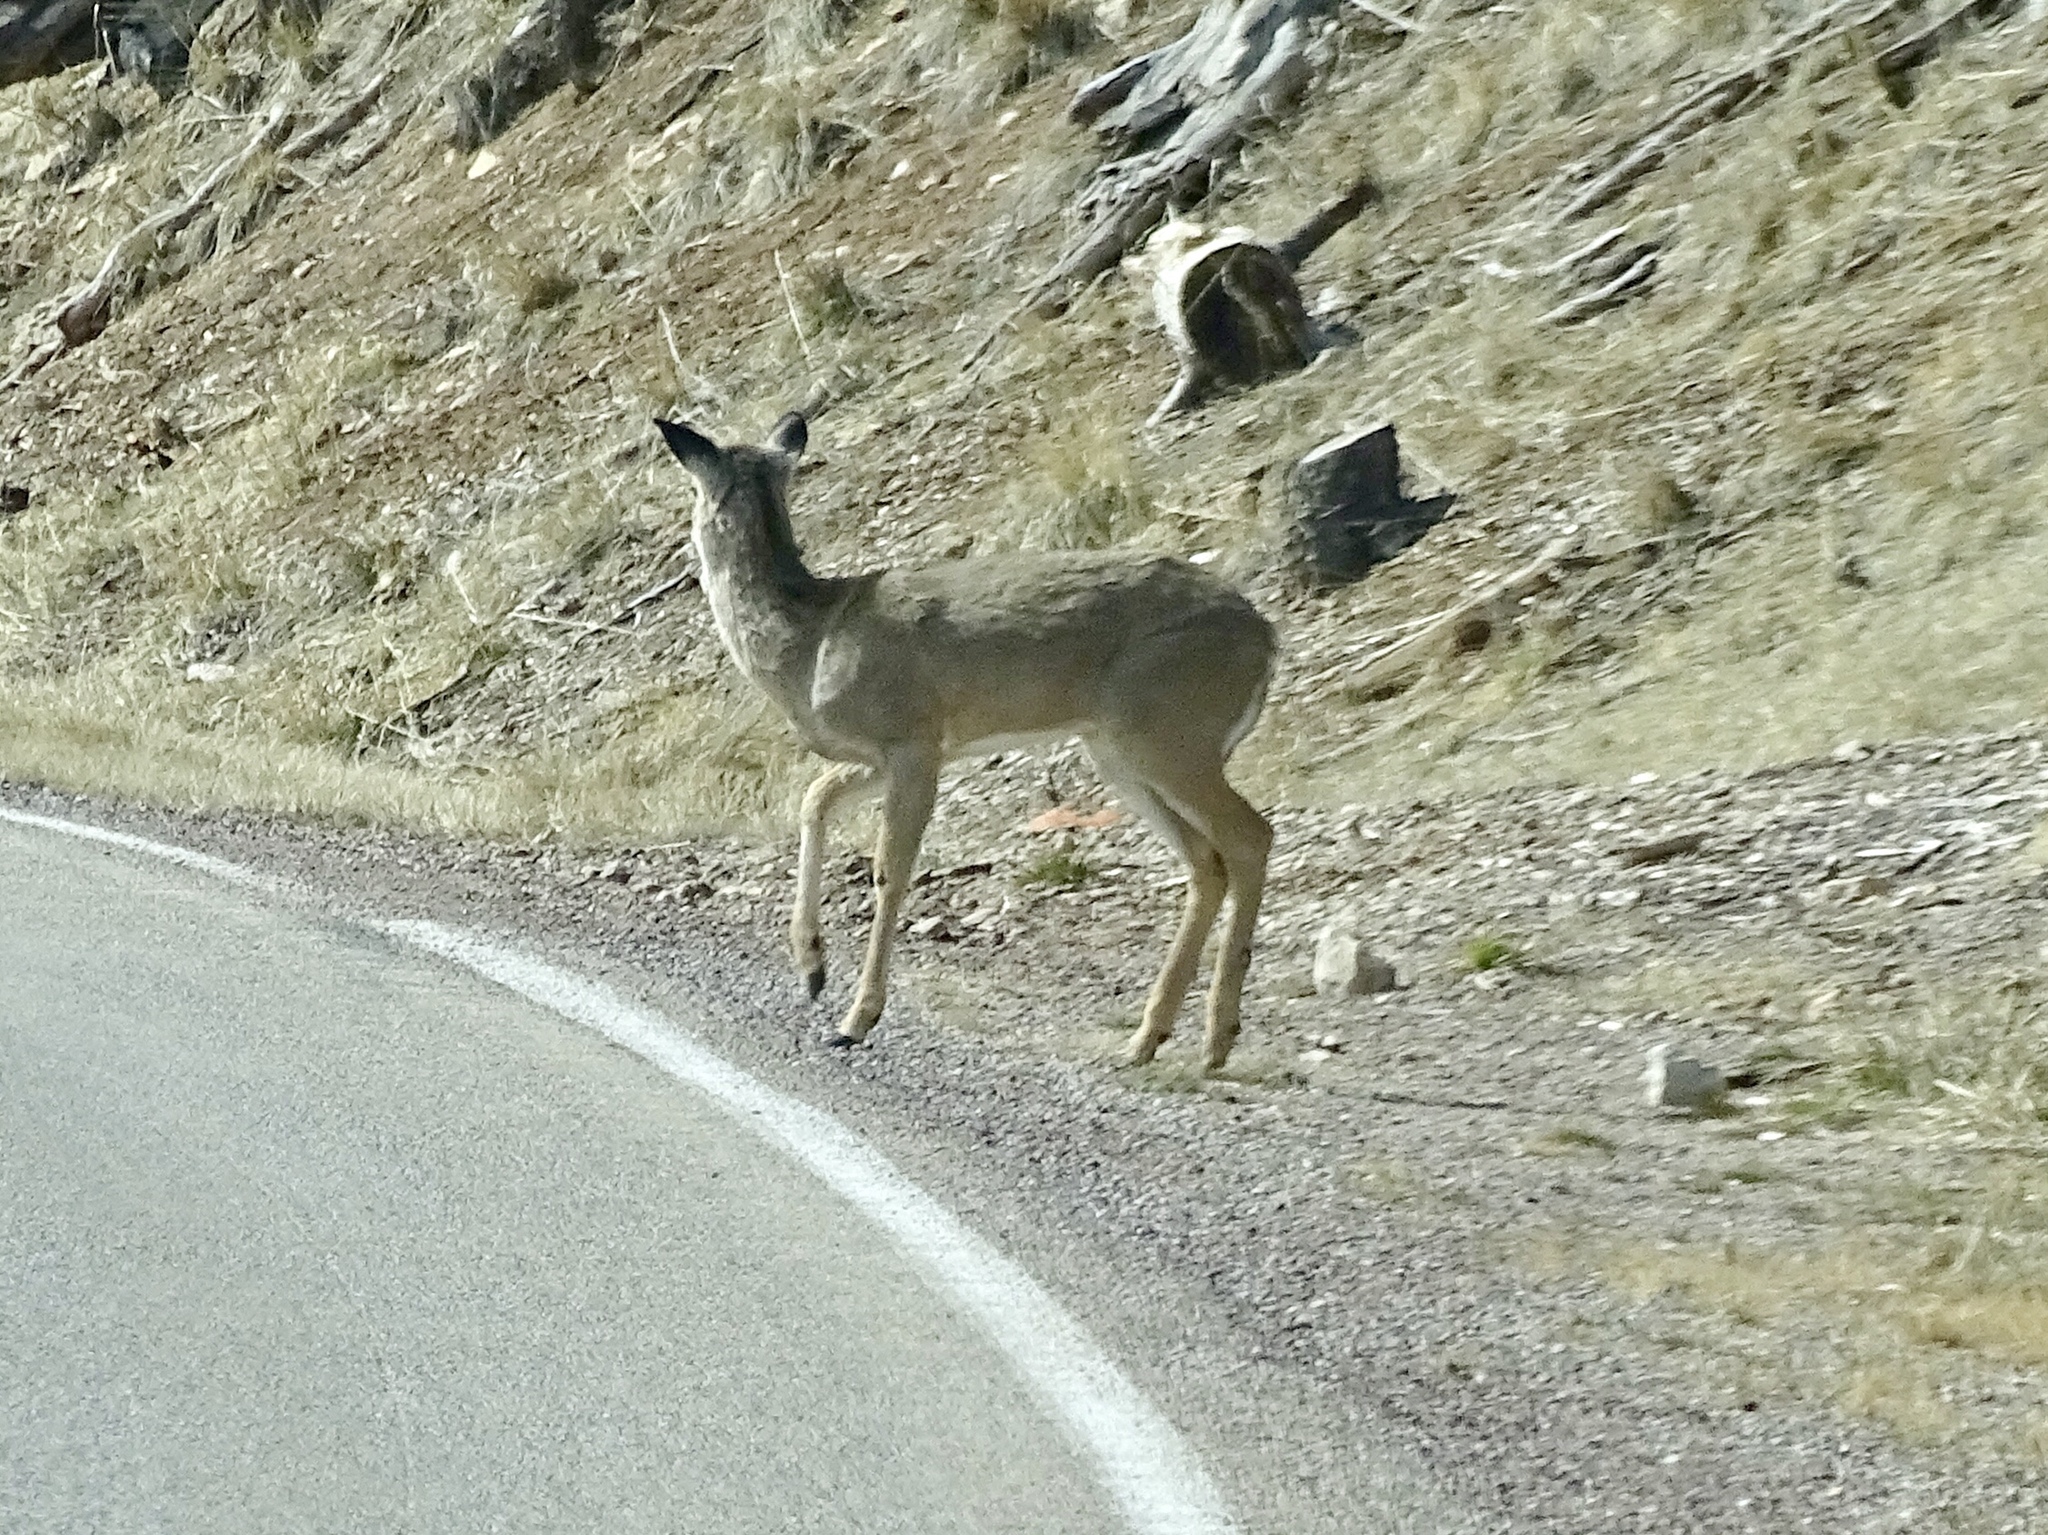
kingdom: Animalia
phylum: Chordata
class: Mammalia
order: Artiodactyla
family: Cervidae
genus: Odocoileus
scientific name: Odocoileus virginianus
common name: White-tailed deer
